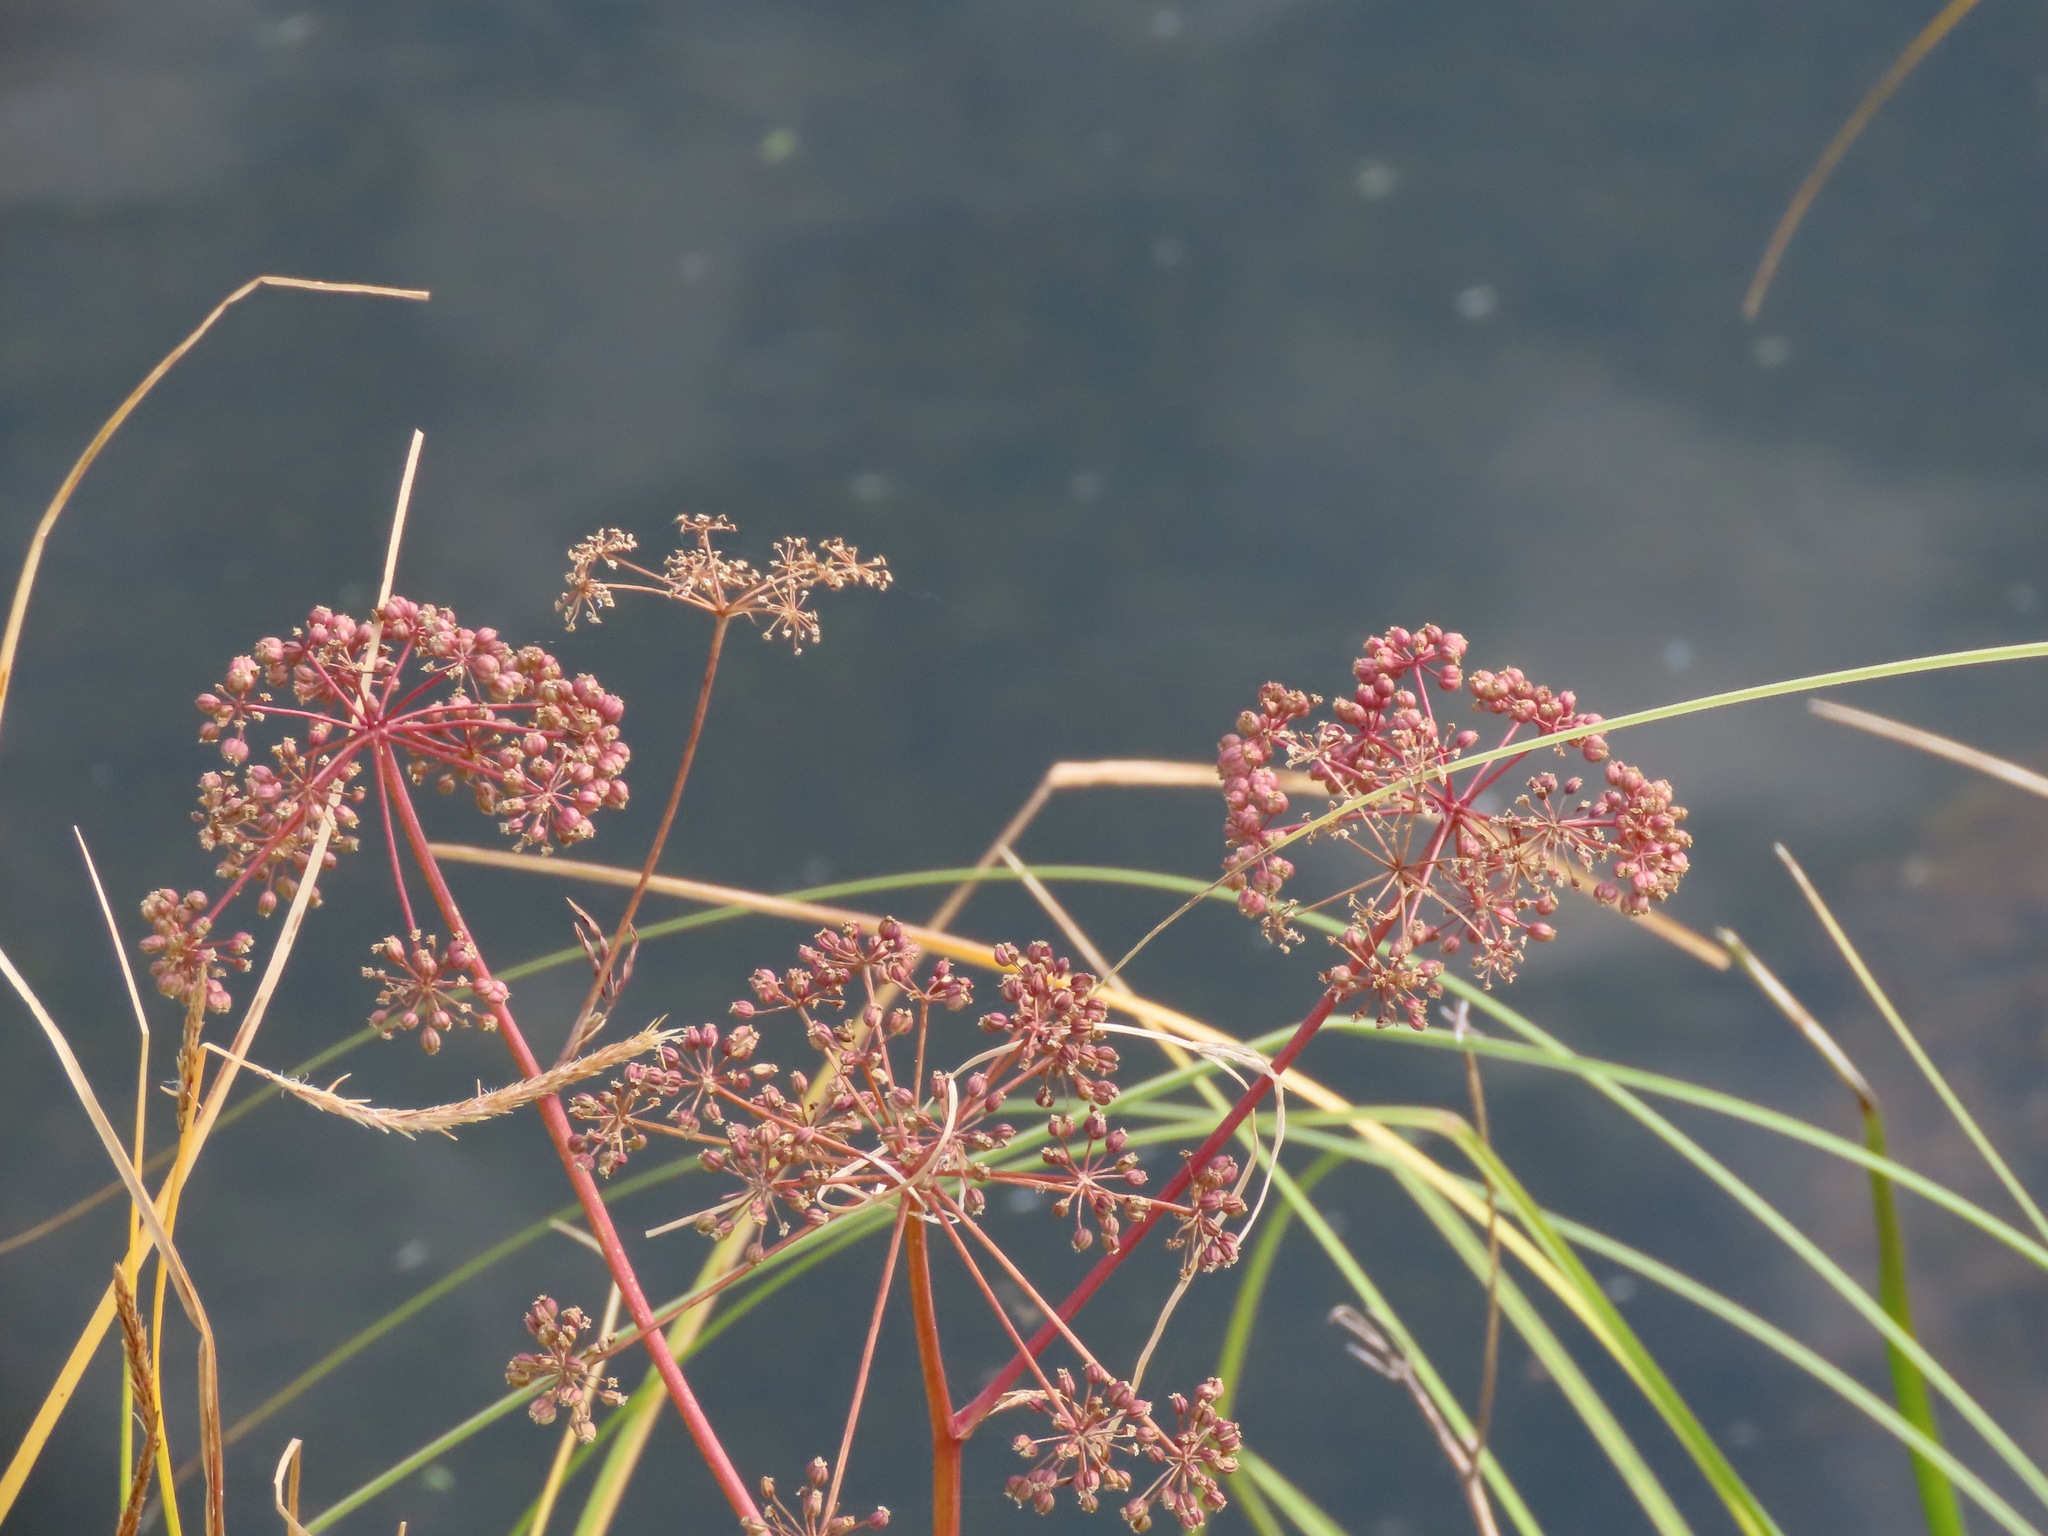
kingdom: Plantae
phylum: Tracheophyta
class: Magnoliopsida
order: Apiales
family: Apiaceae
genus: Cicuta
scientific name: Cicuta douglasii
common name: Western water-hemlock
